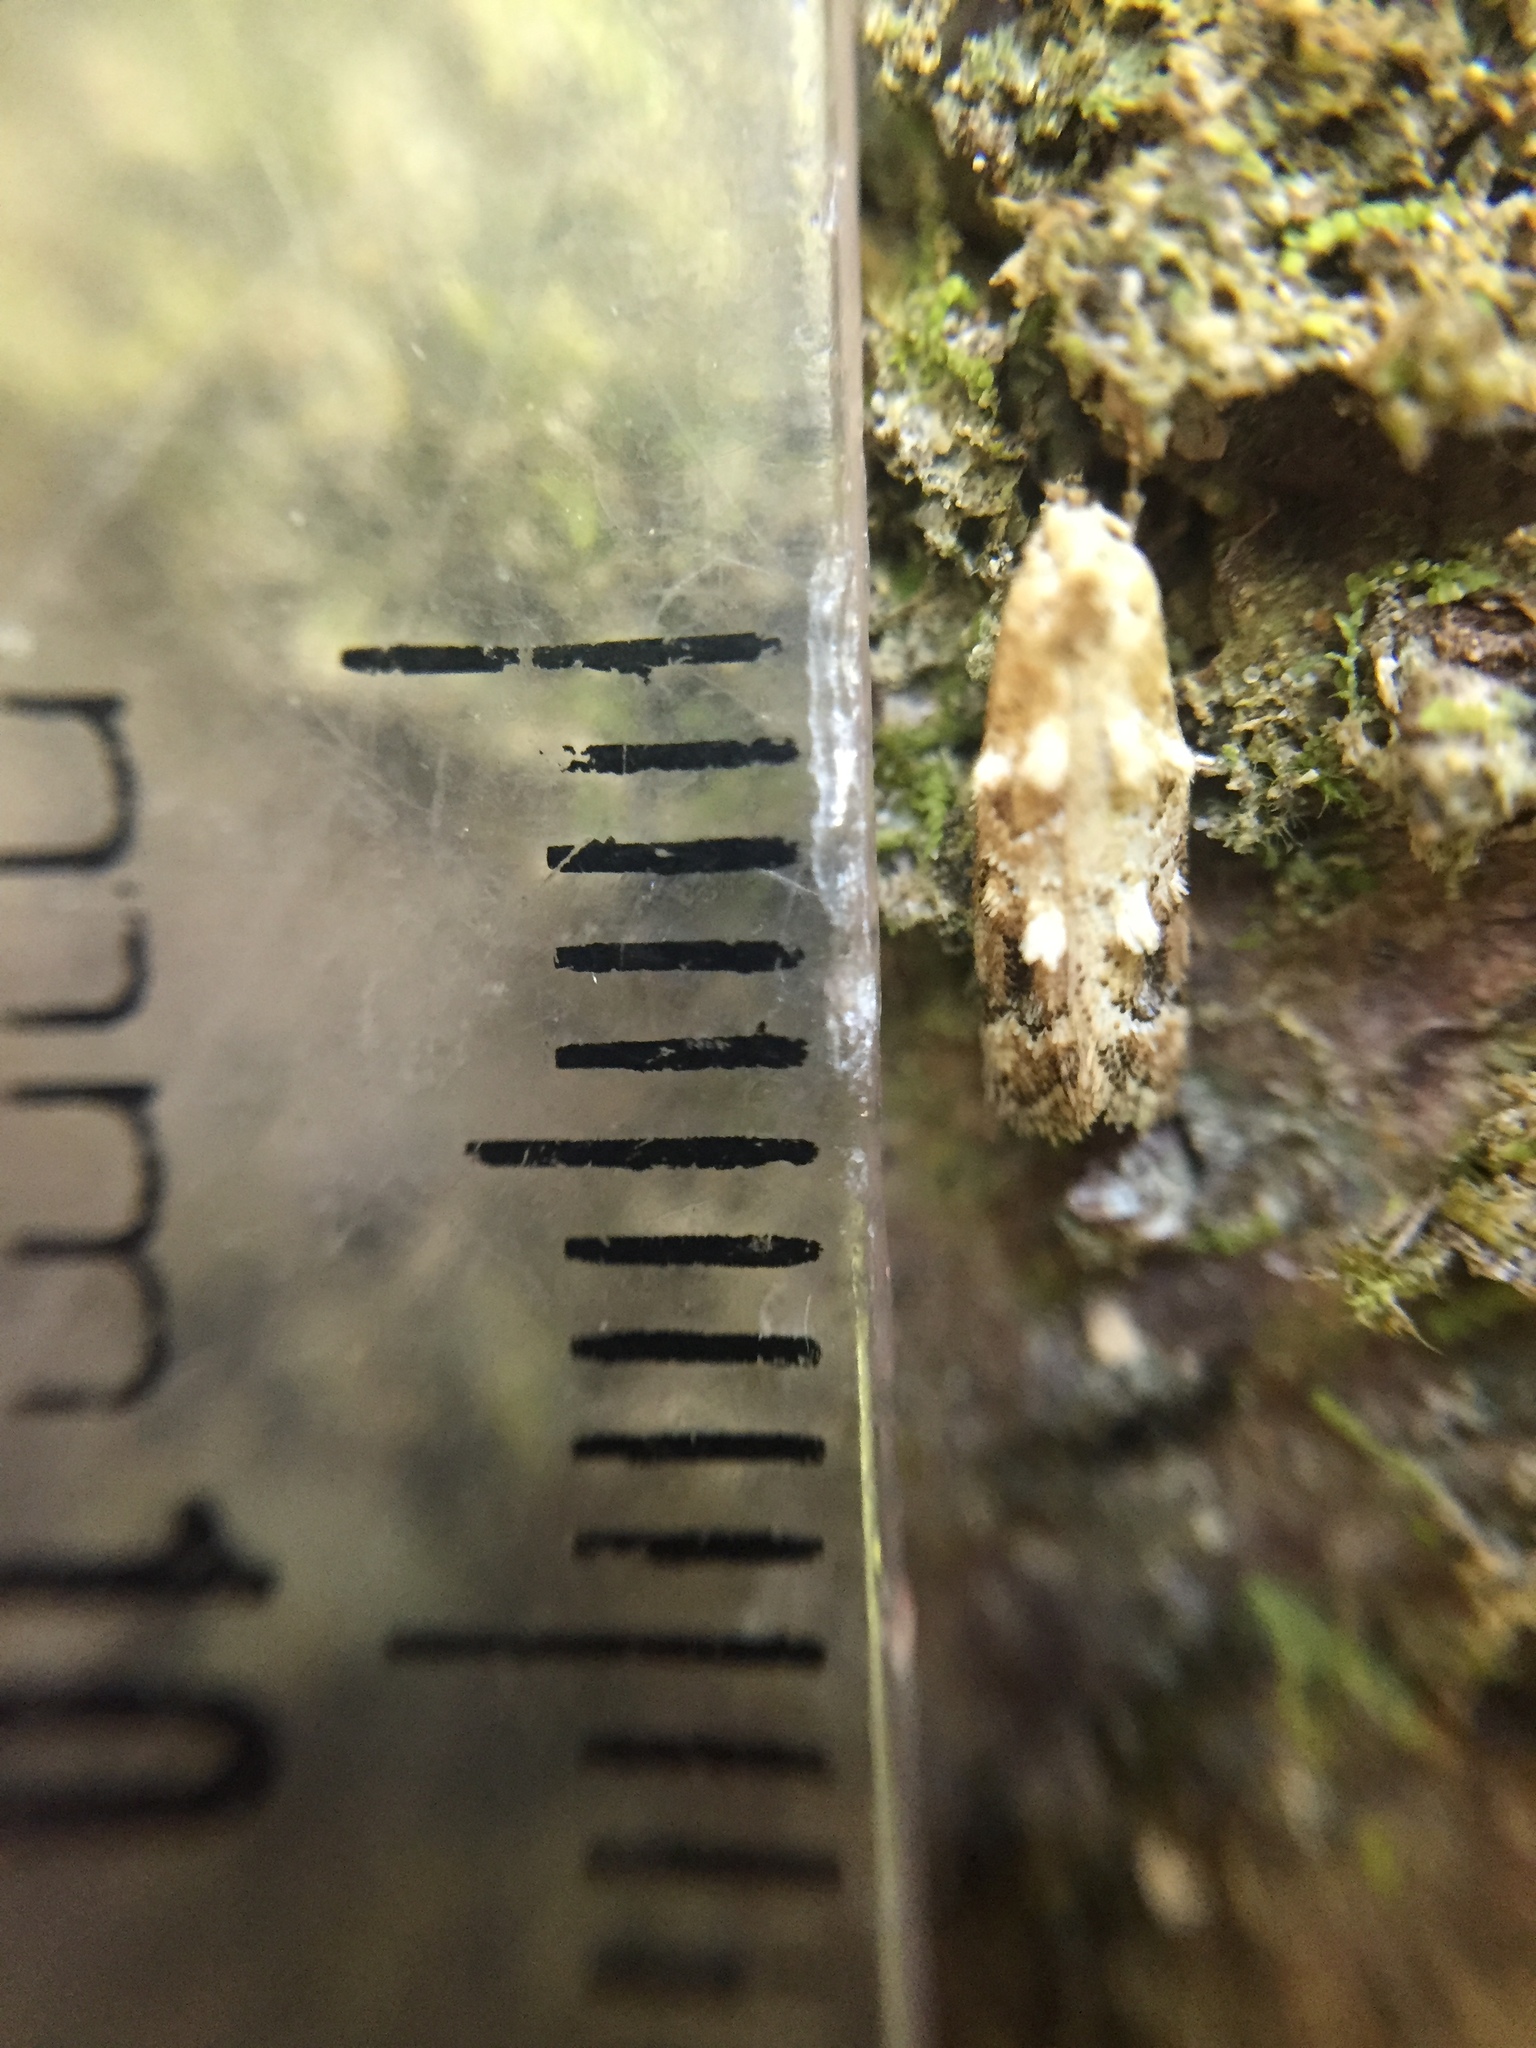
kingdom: Animalia
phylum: Arthropoda
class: Insecta
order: Lepidoptera
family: Oecophoridae
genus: Trachypepla
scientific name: Trachypepla aspidephora
